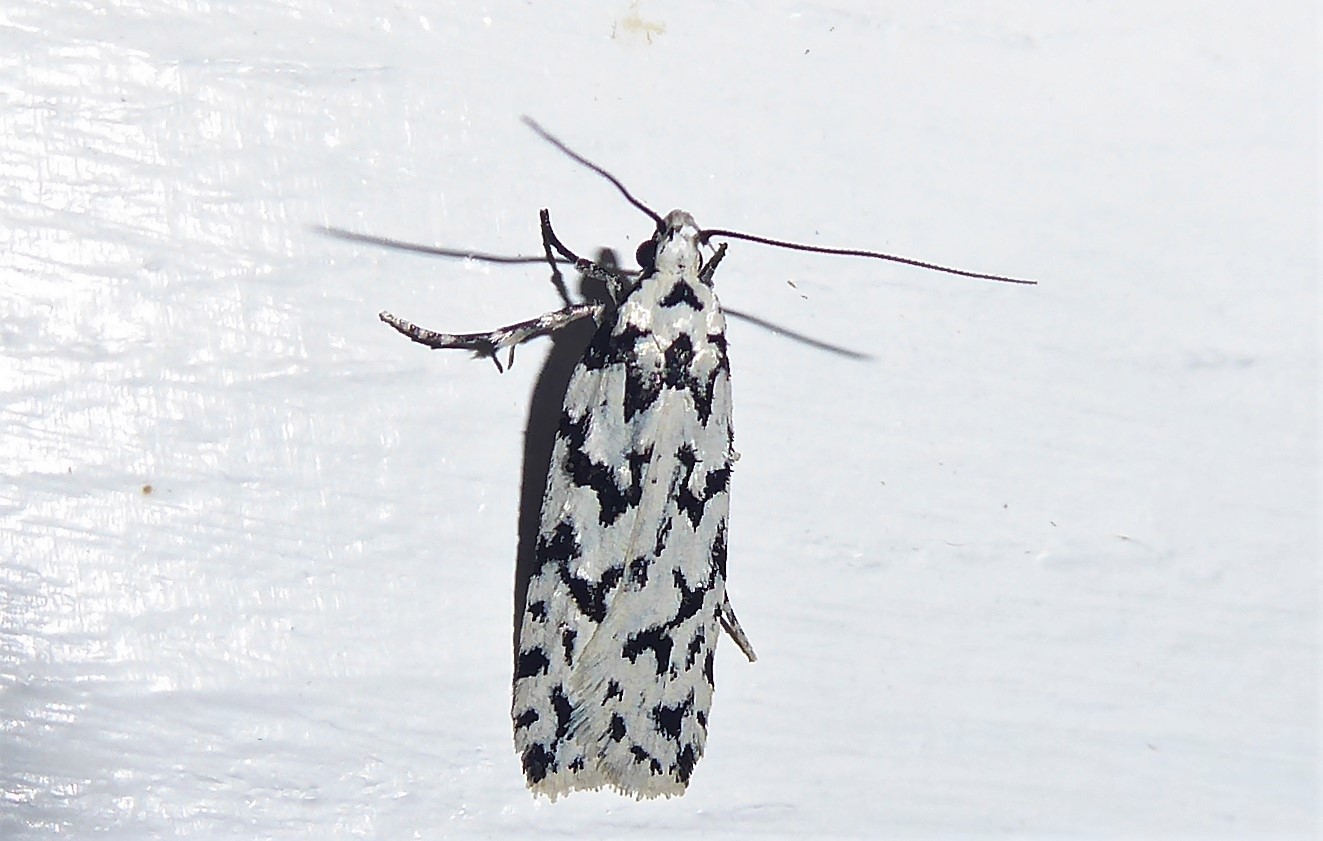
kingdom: Animalia
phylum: Arthropoda
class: Insecta
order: Lepidoptera
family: Oecophoridae
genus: Izatha
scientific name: Izatha katadiktya
